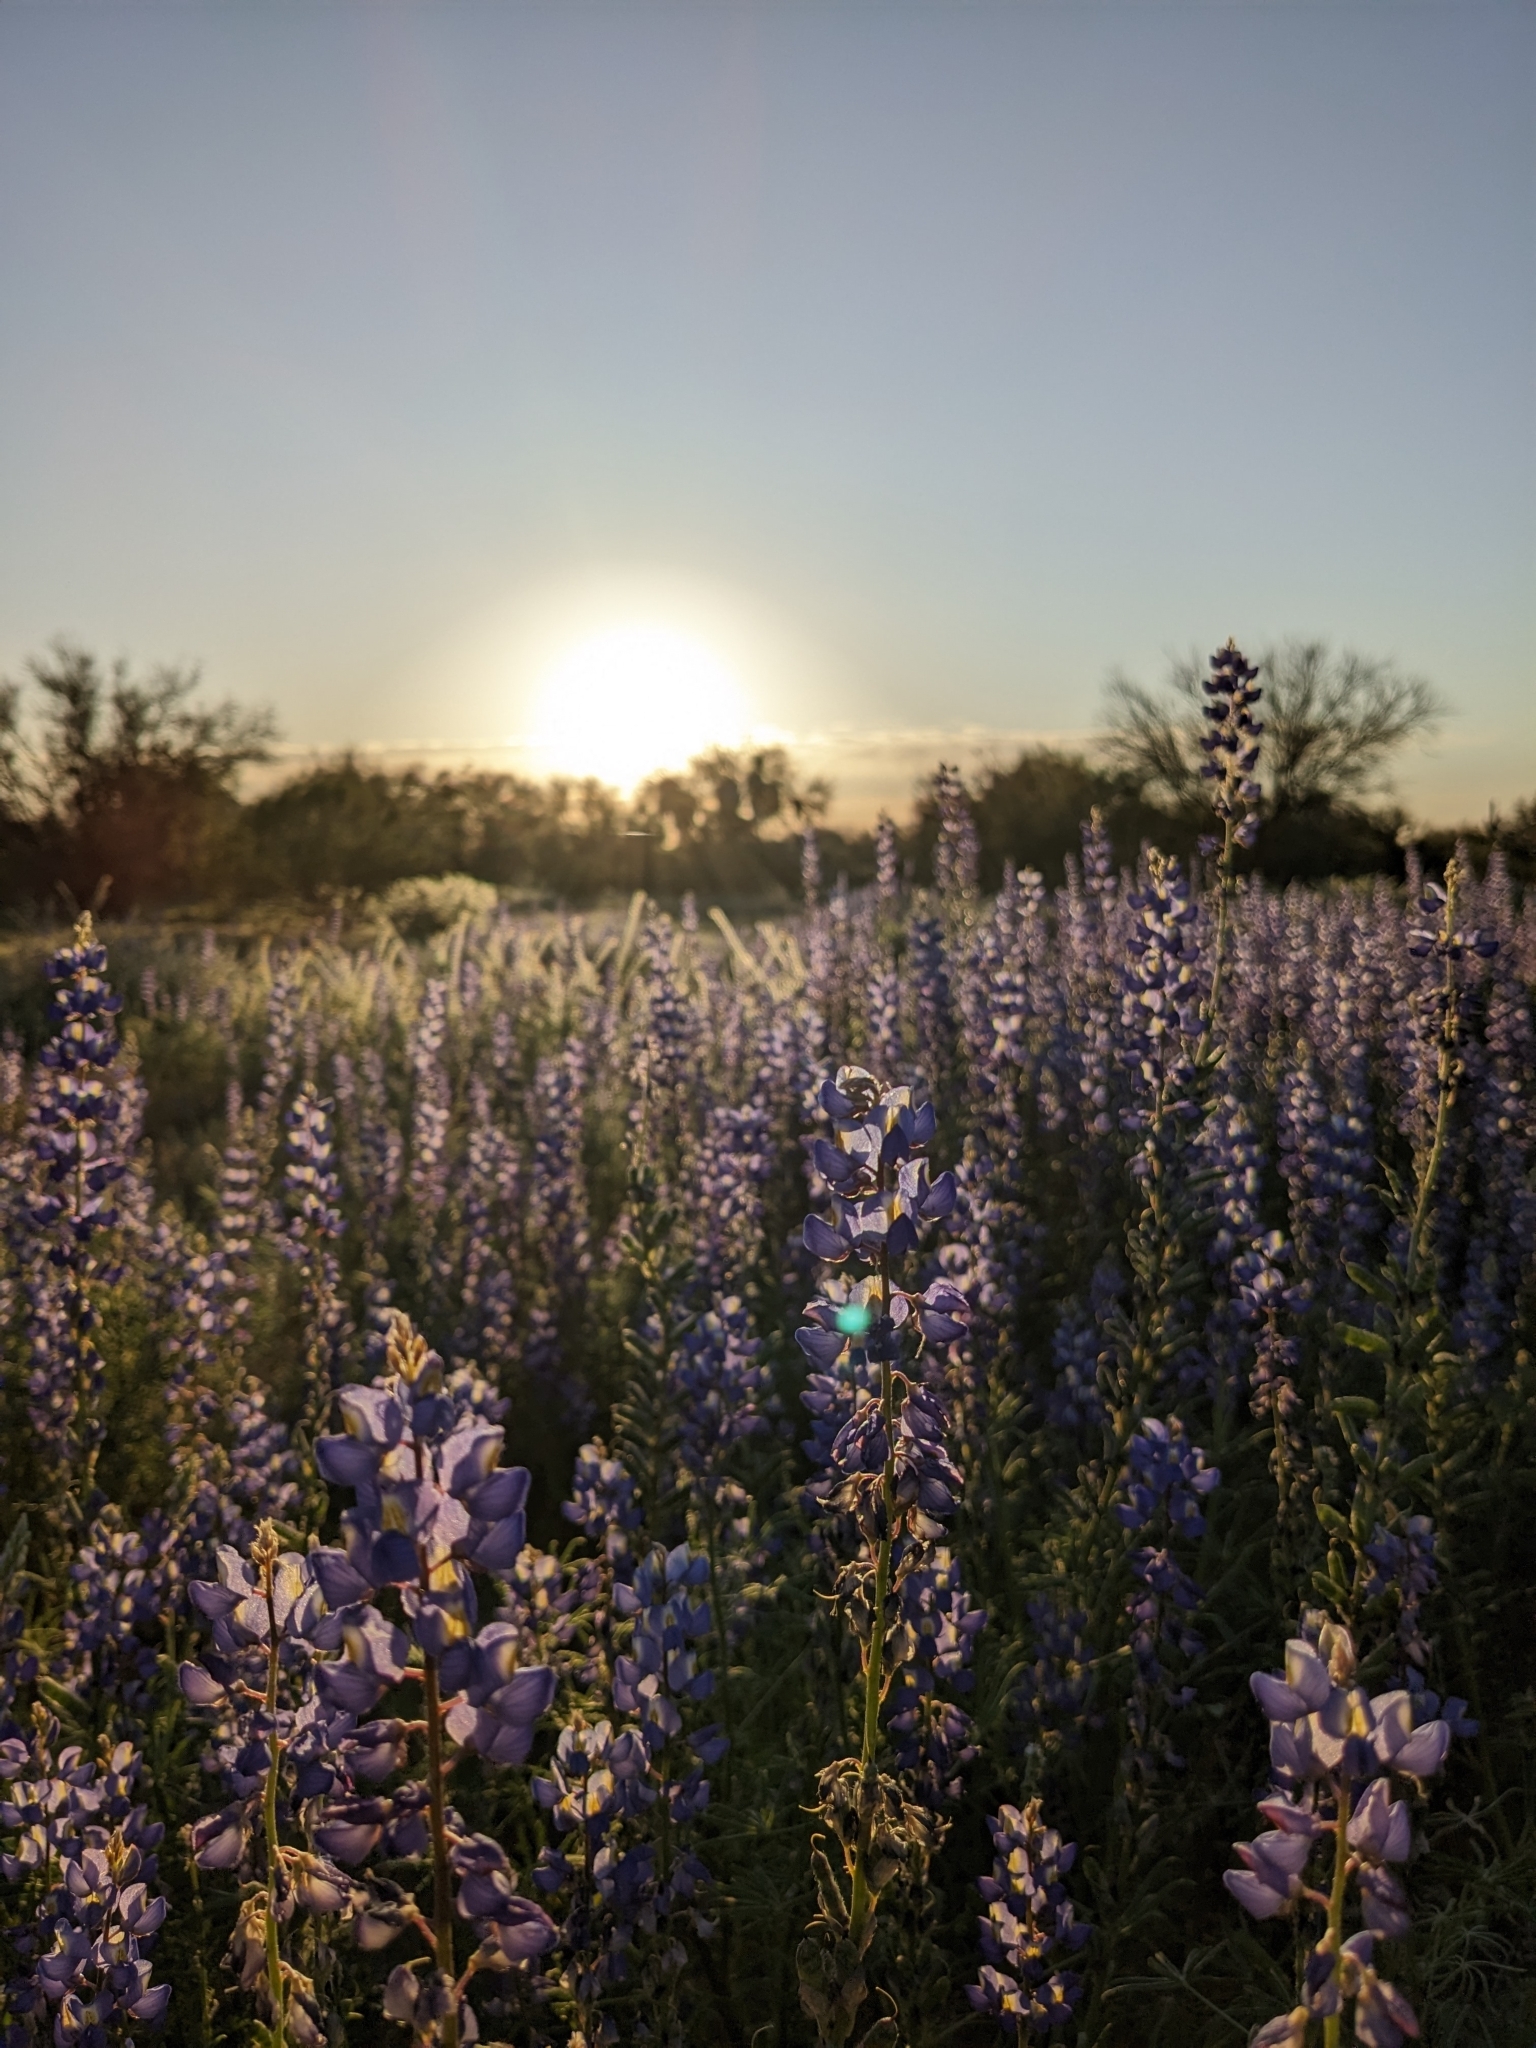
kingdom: Plantae
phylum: Tracheophyta
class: Magnoliopsida
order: Fabales
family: Fabaceae
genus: Lupinus
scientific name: Lupinus sparsiflorus
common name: Coulter's lupine
